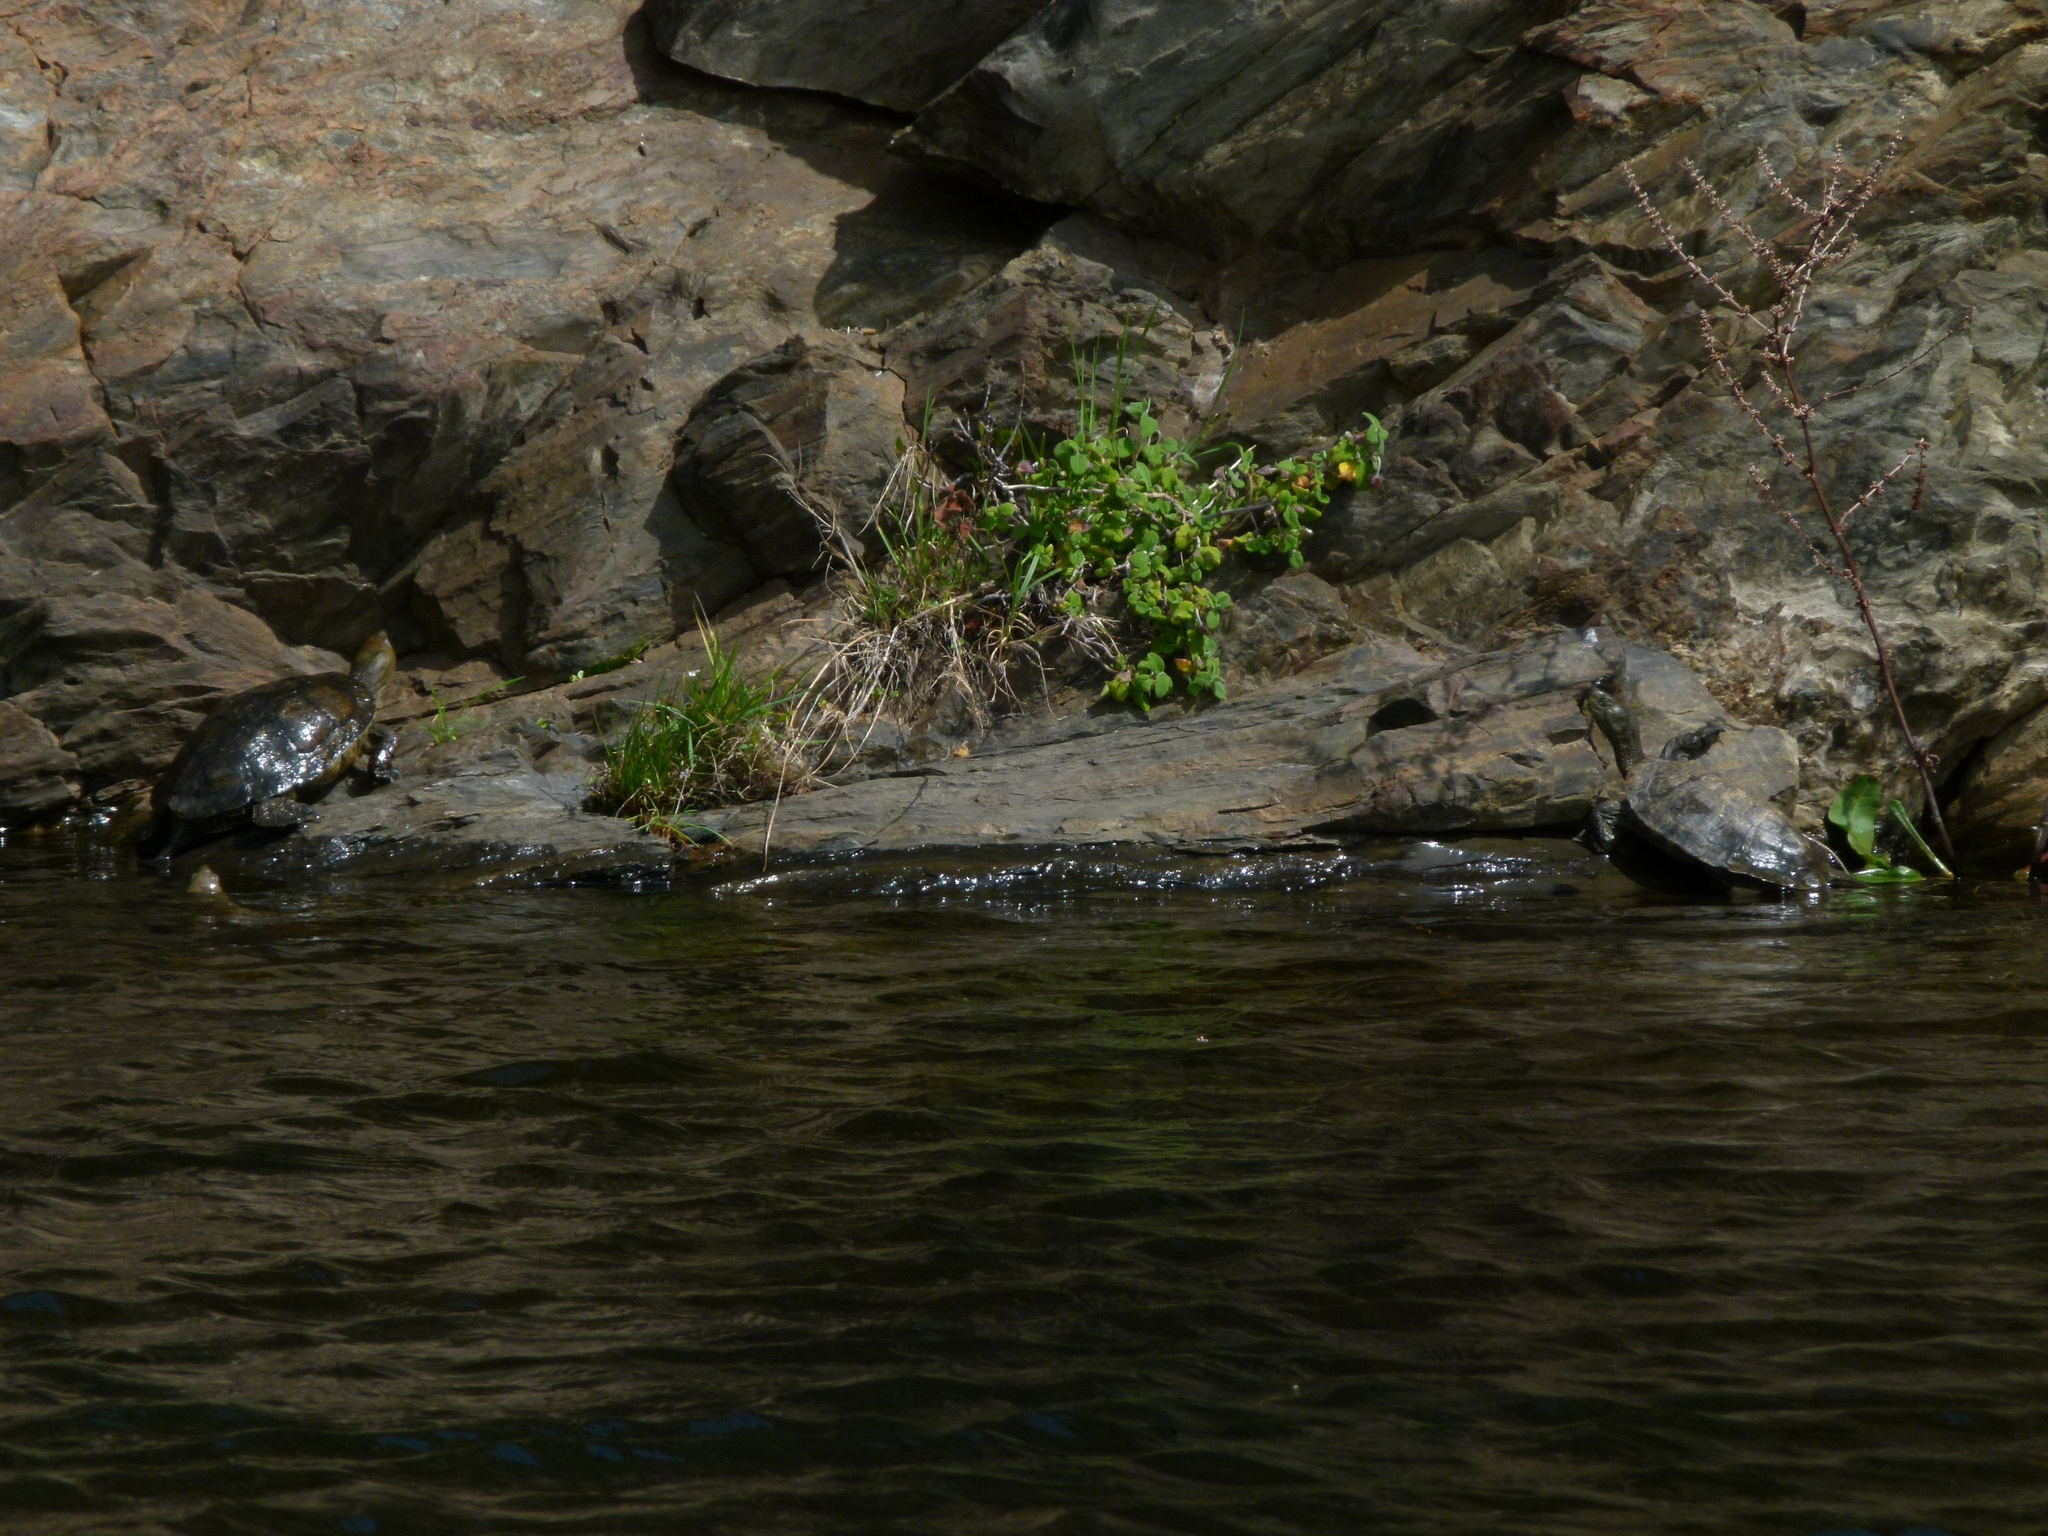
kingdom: Animalia
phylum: Chordata
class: Testudines
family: Geoemydidae
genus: Mauremys
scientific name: Mauremys leprosa
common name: Mediterranean pond turtle
